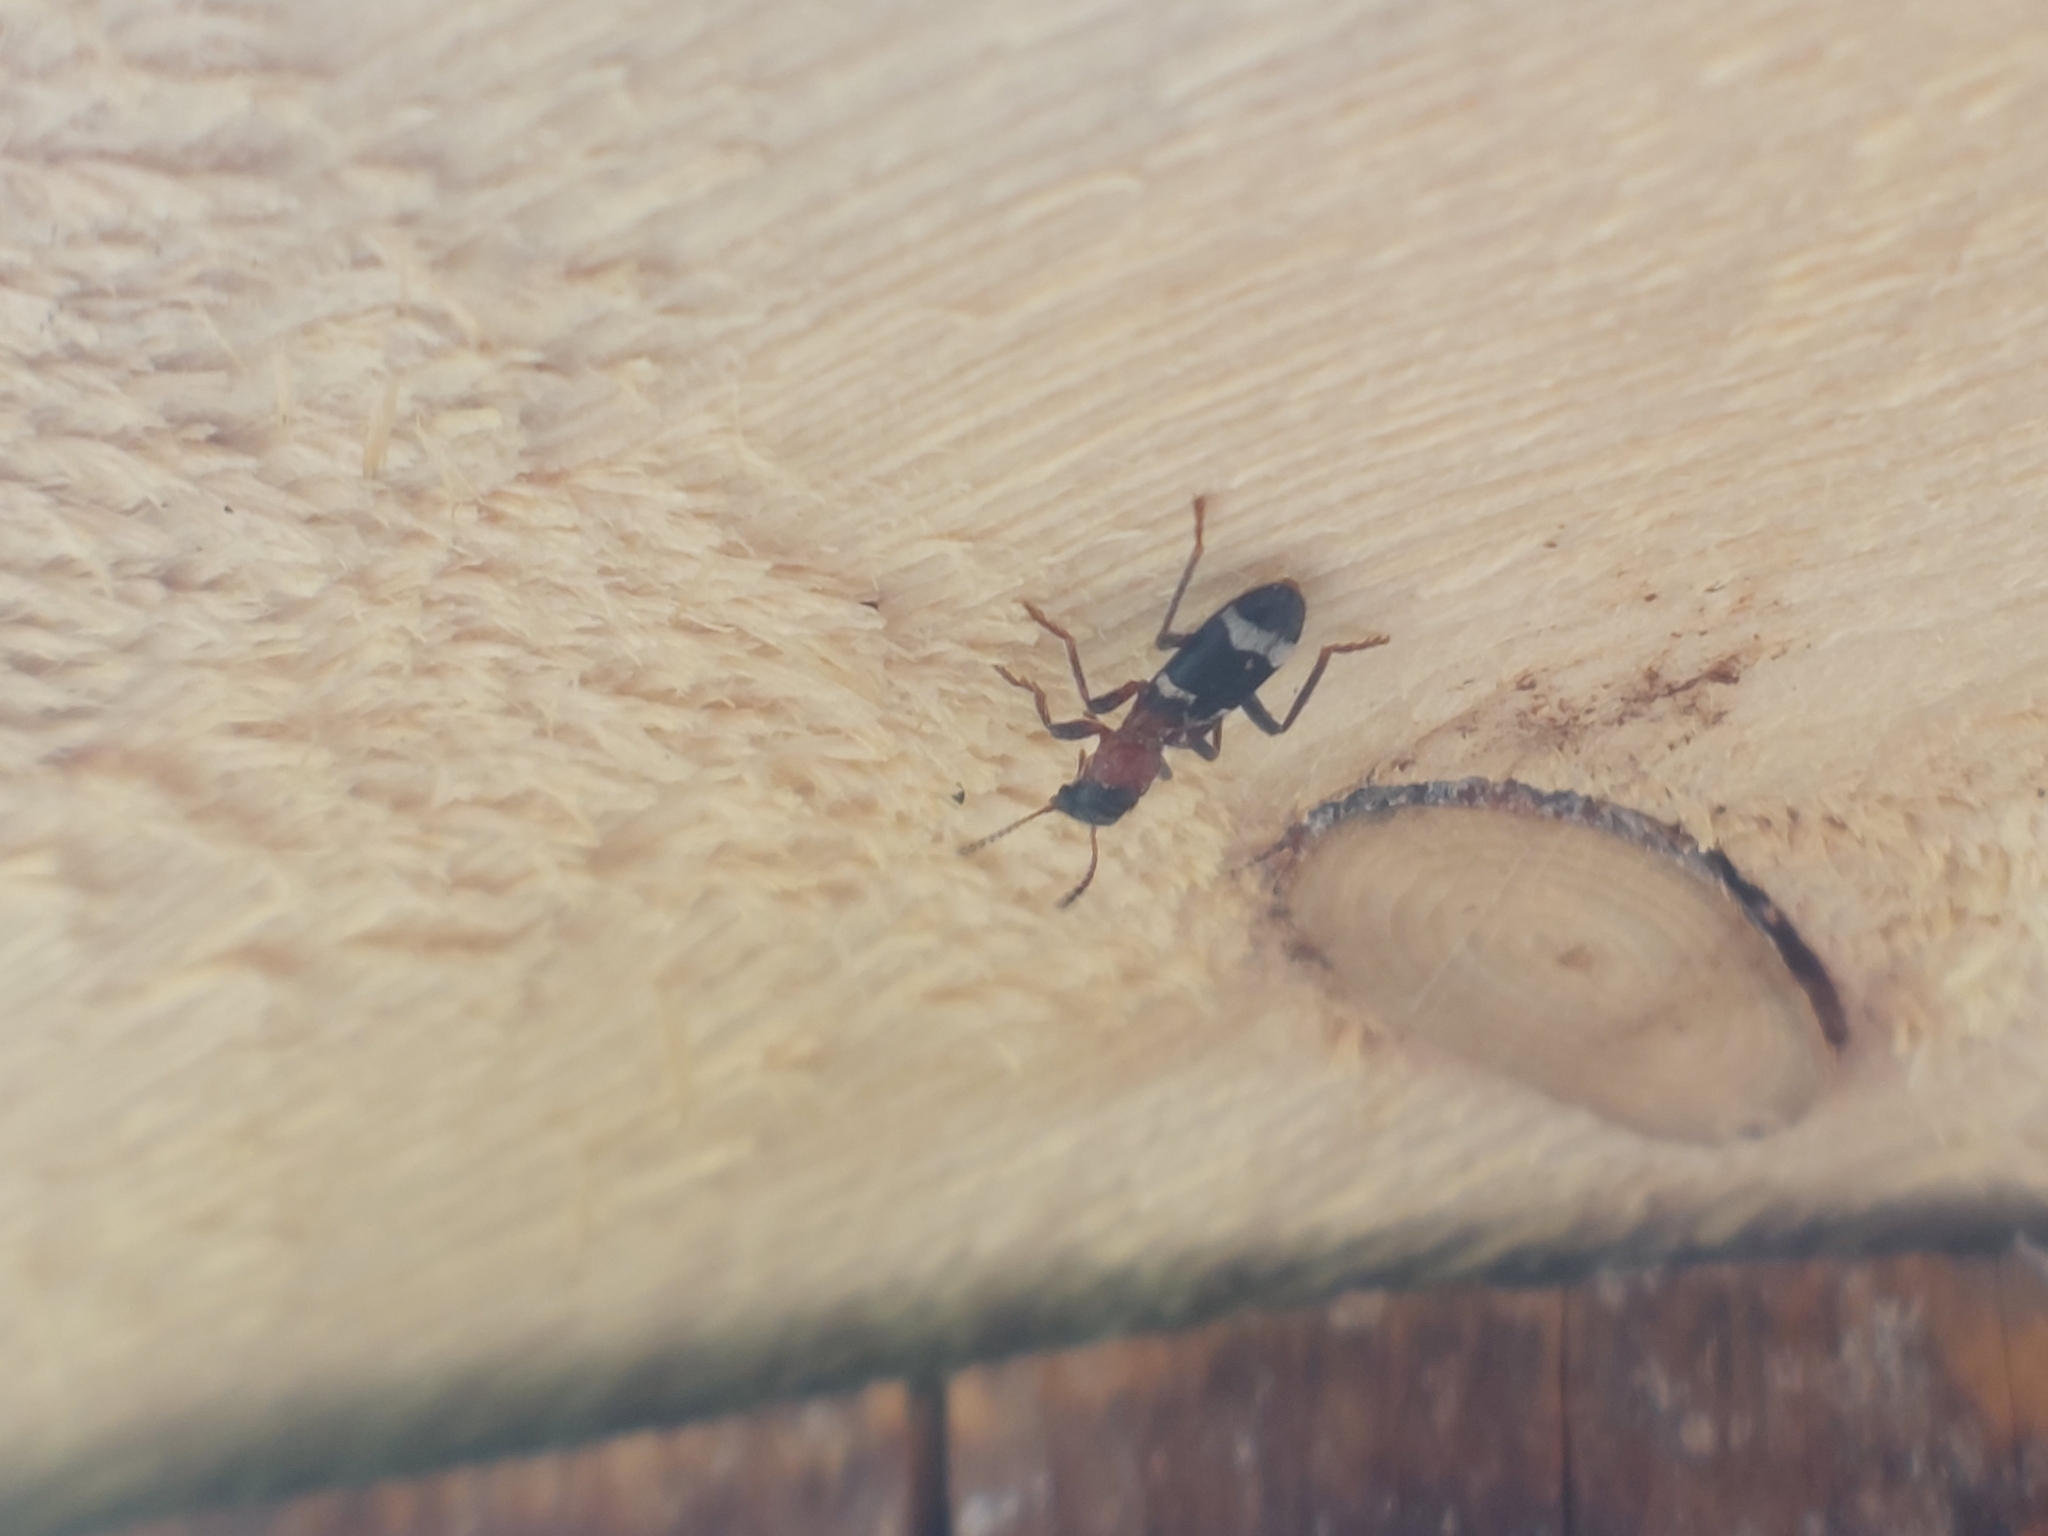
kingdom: Animalia
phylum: Arthropoda
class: Insecta
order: Coleoptera
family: Cleridae
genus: Thanasimus
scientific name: Thanasimus formicarius
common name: Ant beetle
